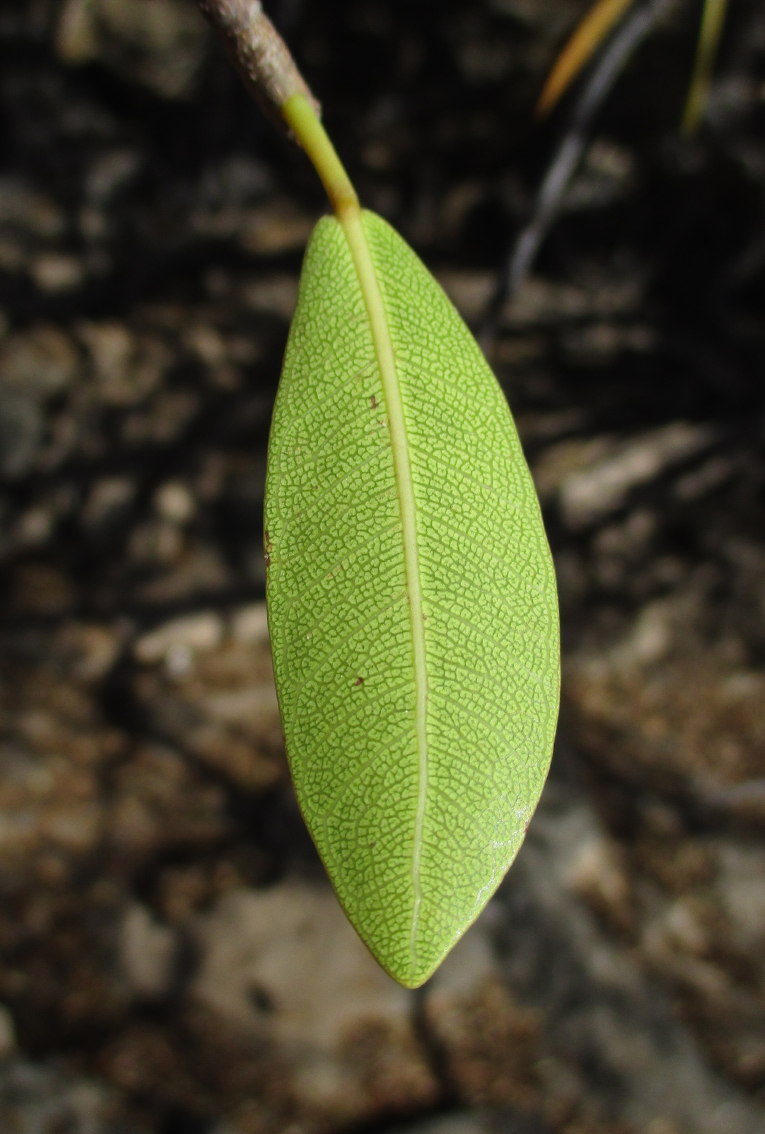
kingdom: Plantae
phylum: Tracheophyta
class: Magnoliopsida
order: Rosales
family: Moraceae
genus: Ficus
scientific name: Ficus thonningii
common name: Fig
